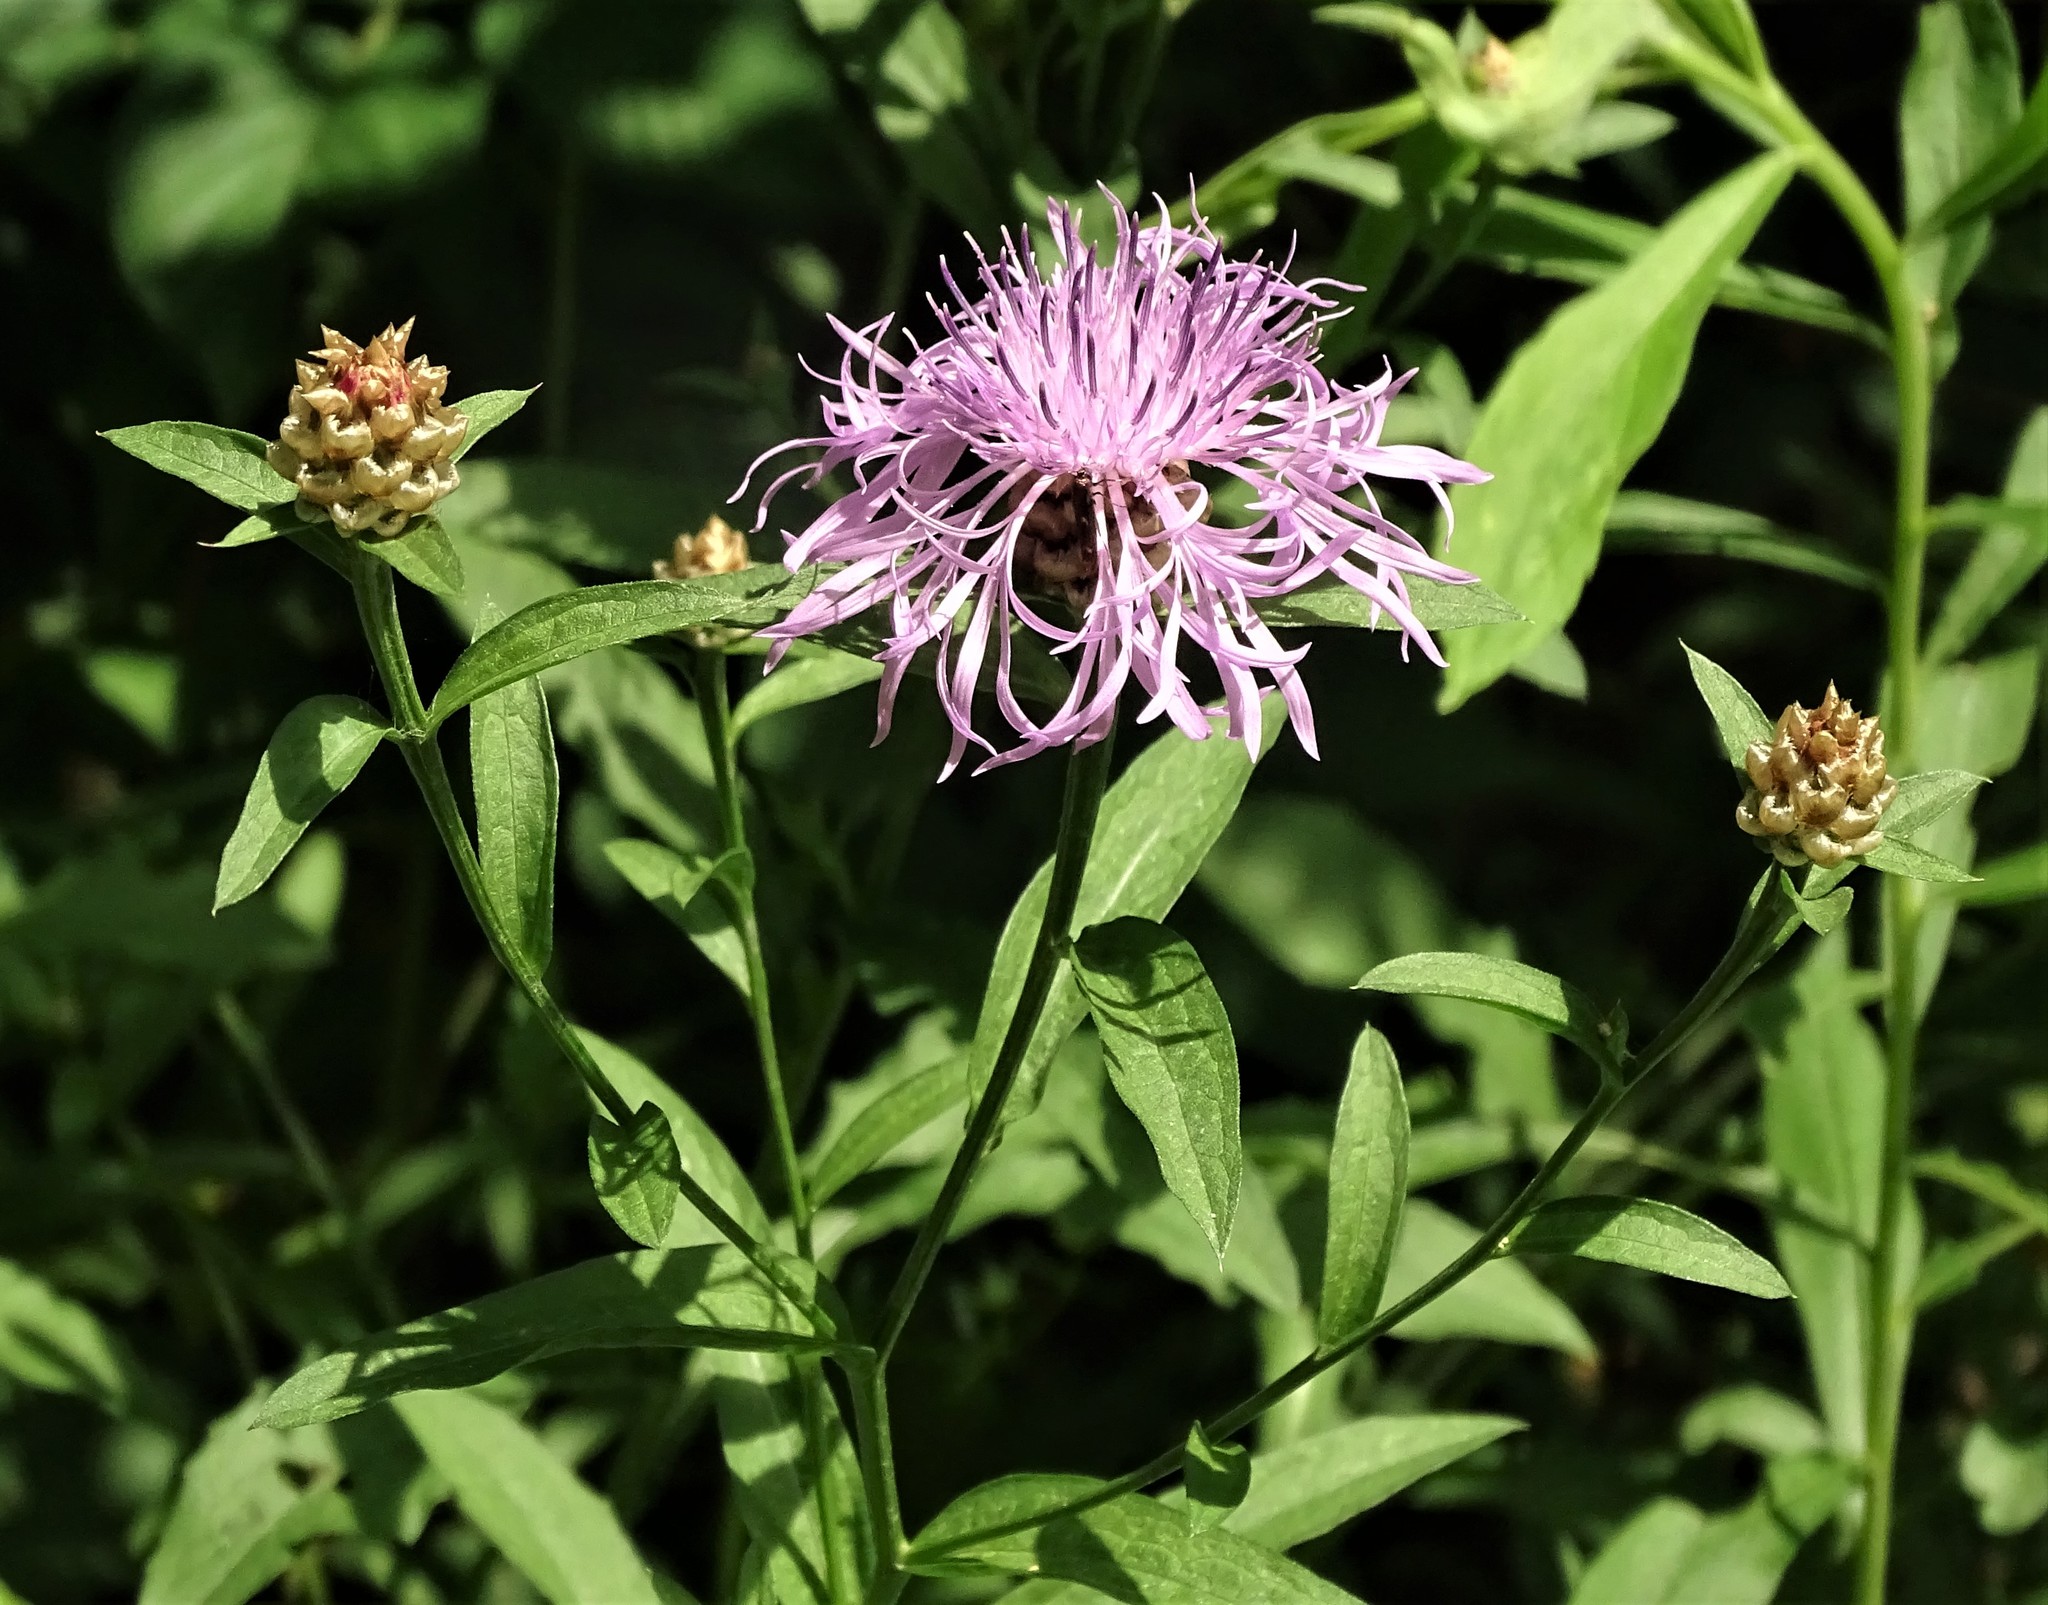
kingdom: Plantae
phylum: Tracheophyta
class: Magnoliopsida
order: Asterales
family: Asteraceae
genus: Centaurea
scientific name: Centaurea jacea
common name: Brown knapweed
